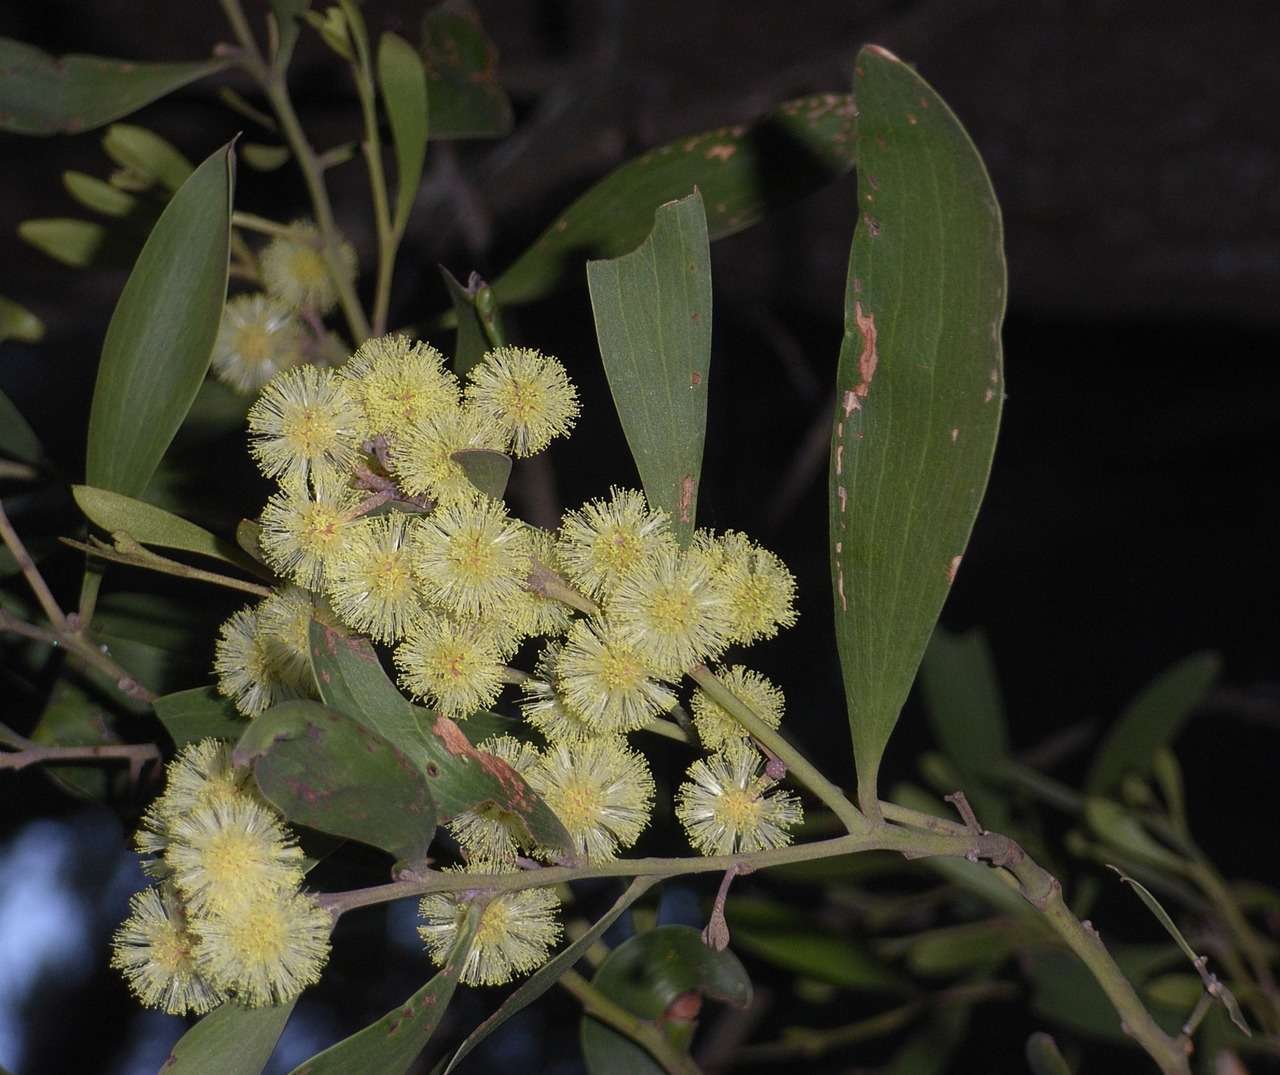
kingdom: Plantae
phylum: Tracheophyta
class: Magnoliopsida
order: Fabales
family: Fabaceae
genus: Acacia
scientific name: Acacia melanoxylon
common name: Blackwood
